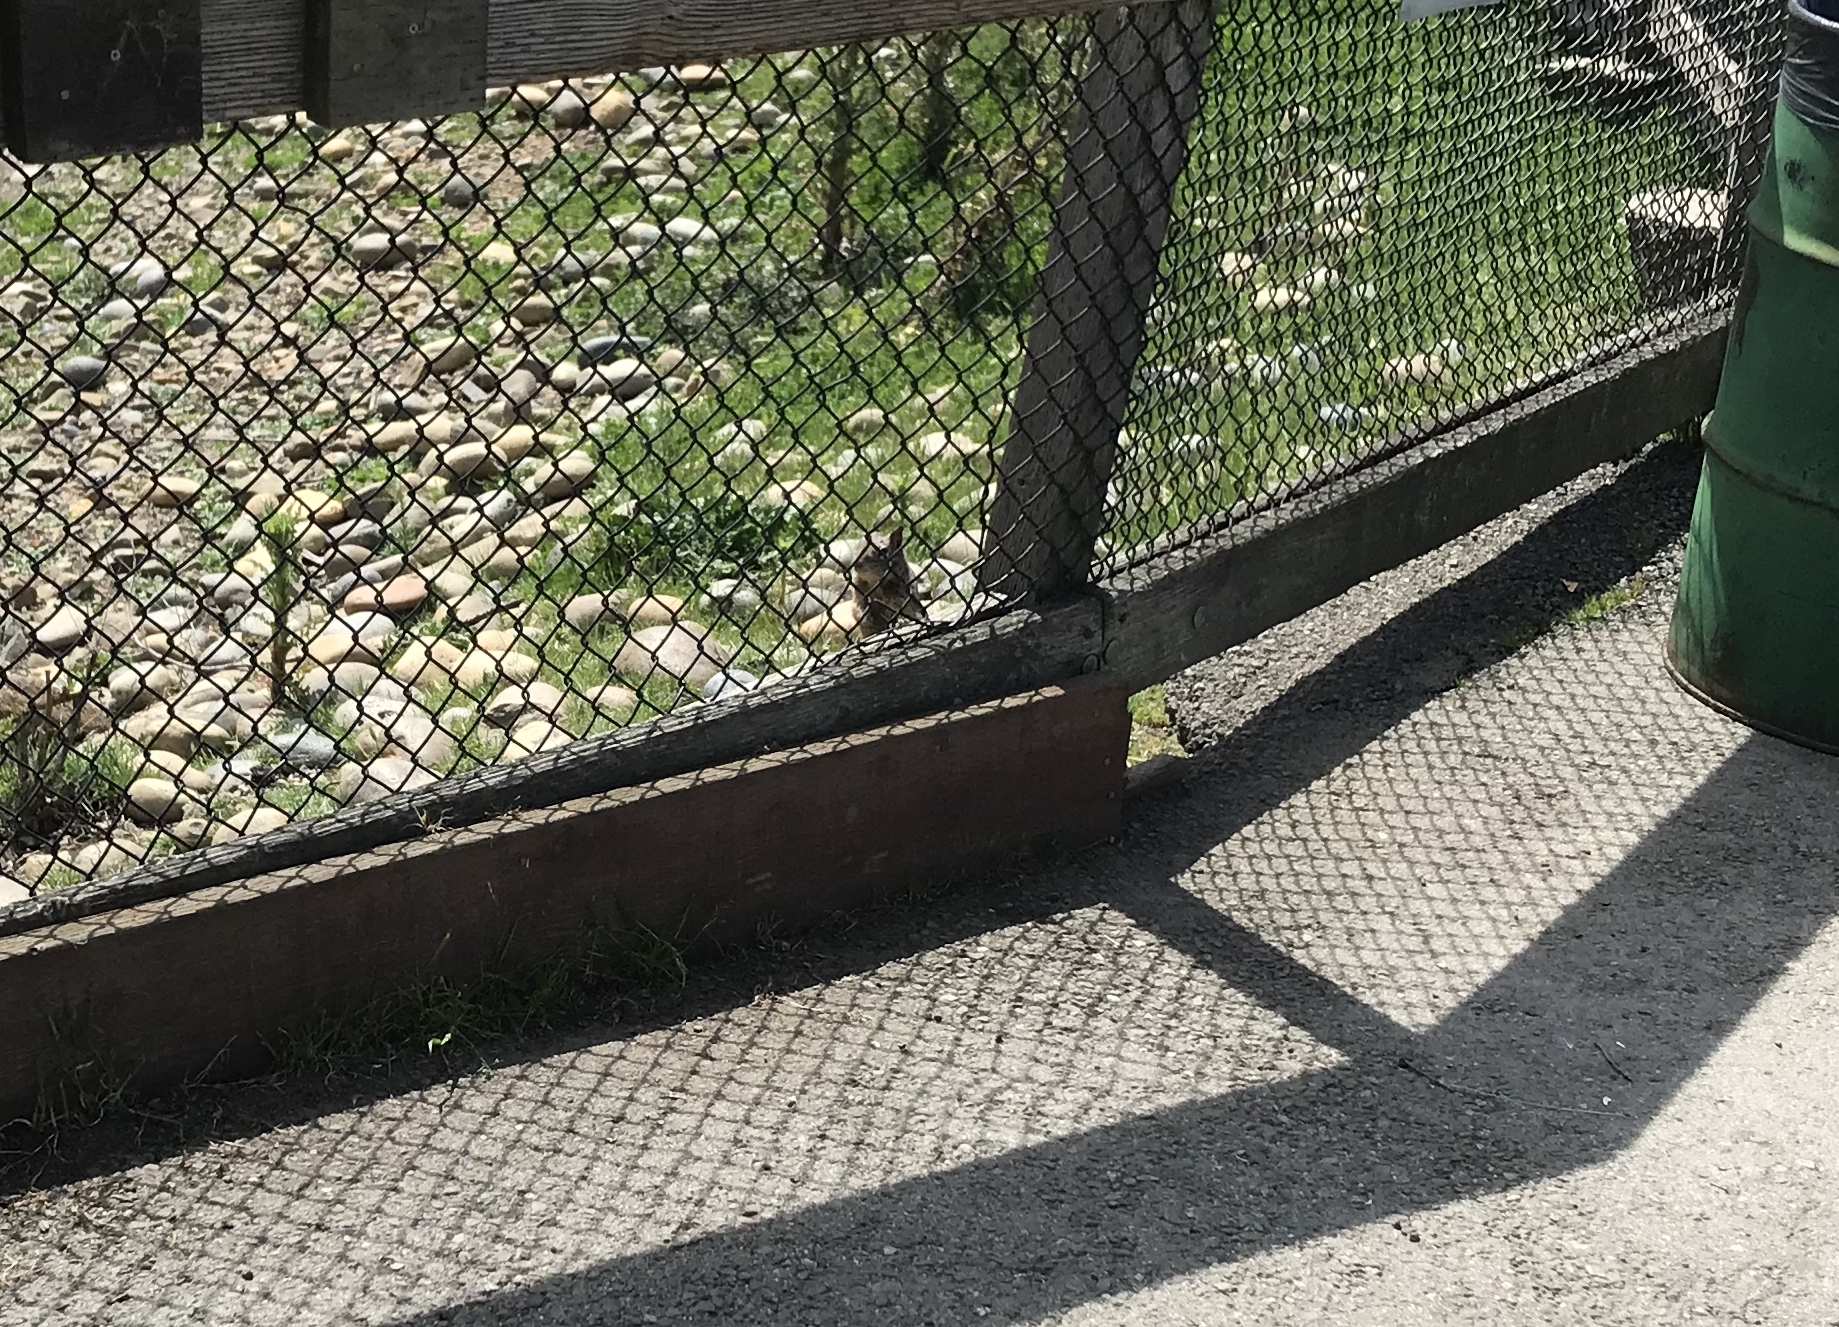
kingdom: Animalia
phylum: Chordata
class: Mammalia
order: Rodentia
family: Sciuridae
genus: Otospermophilus
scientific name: Otospermophilus beecheyi
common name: California ground squirrel
